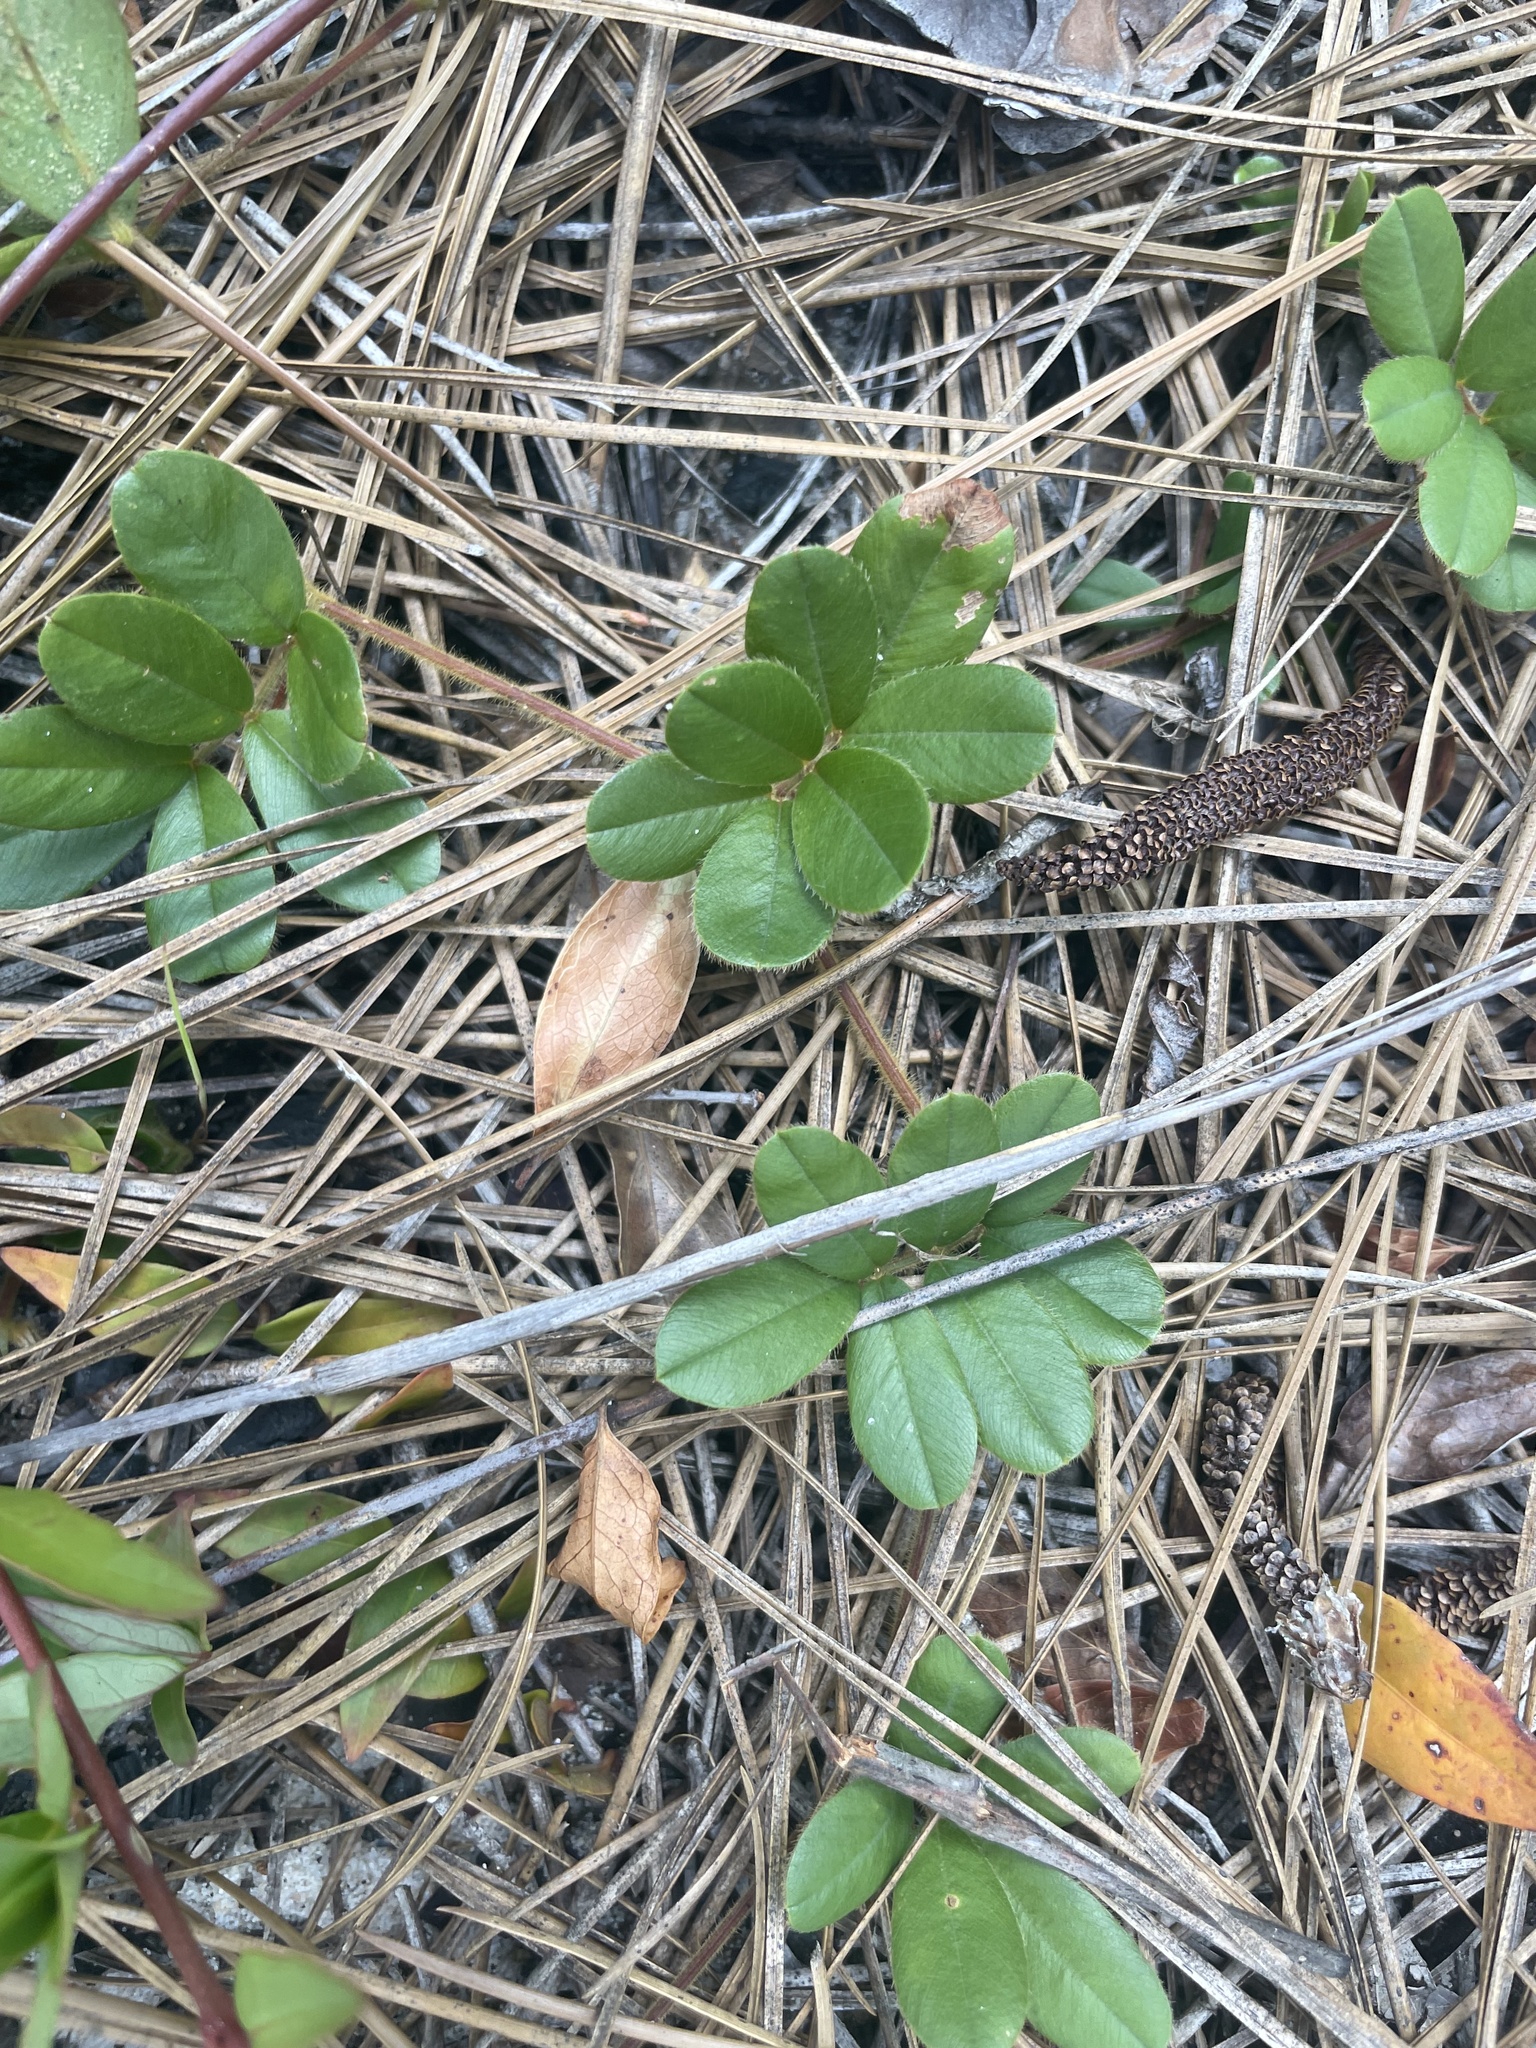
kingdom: Plantae
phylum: Tracheophyta
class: Magnoliopsida
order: Fabales
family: Fabaceae
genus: Tephrosia
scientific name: Tephrosia chrysophylla
